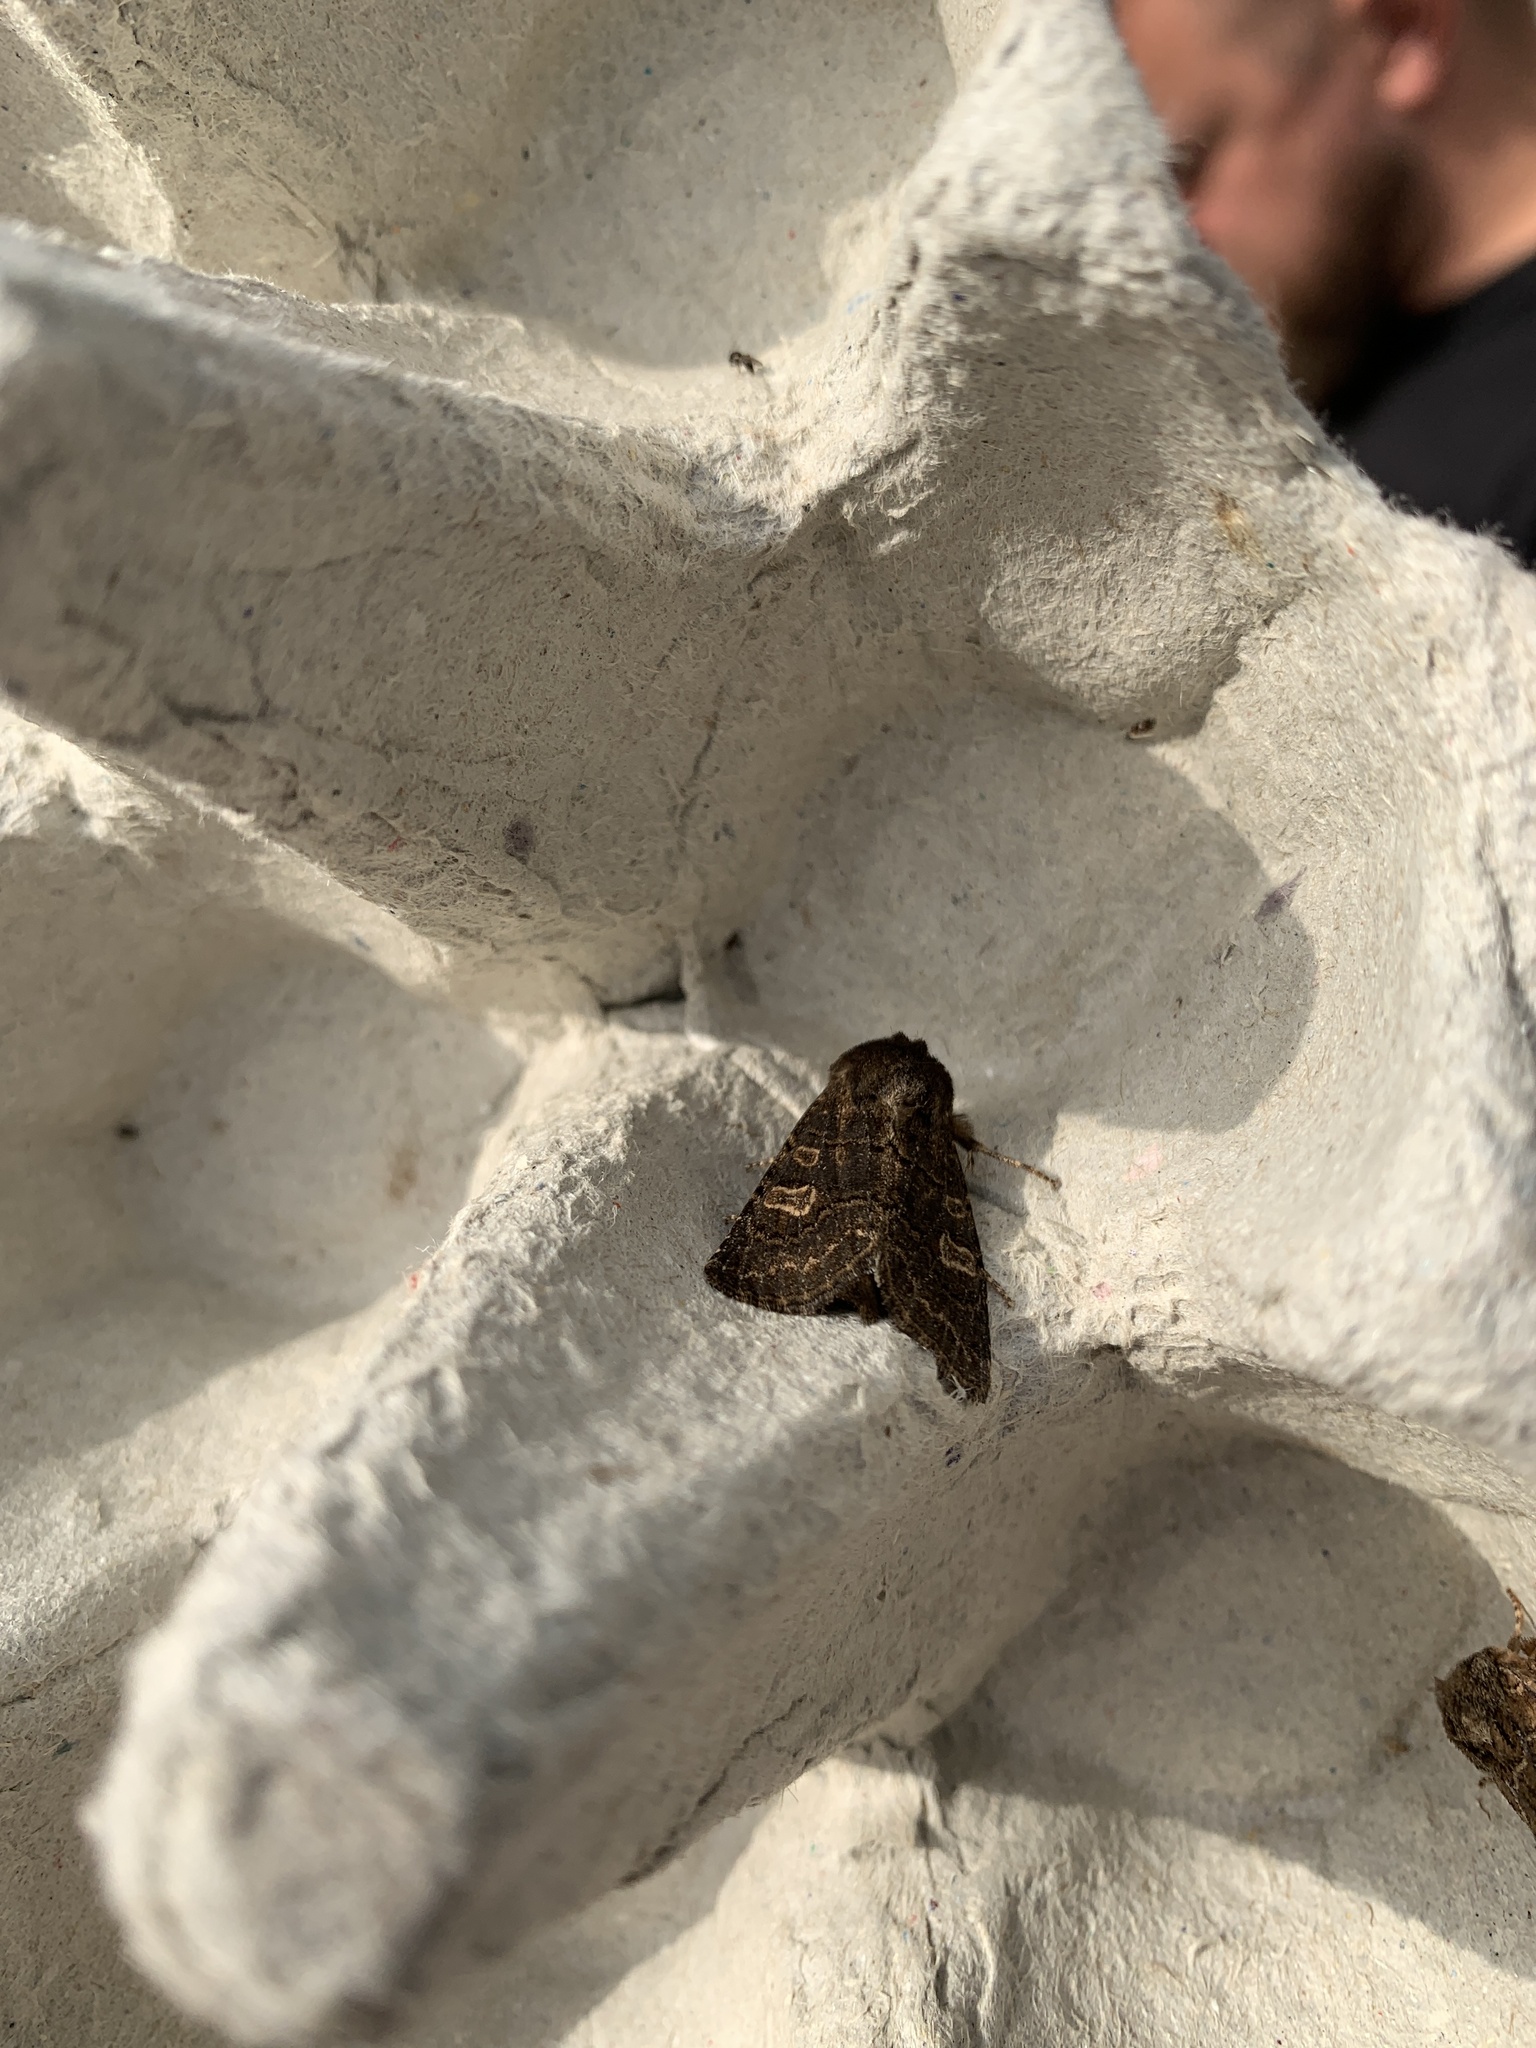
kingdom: Animalia
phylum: Arthropoda
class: Insecta
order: Lepidoptera
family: Noctuidae
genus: Tholera
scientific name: Tholera cespitis
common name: Hedge rustic
